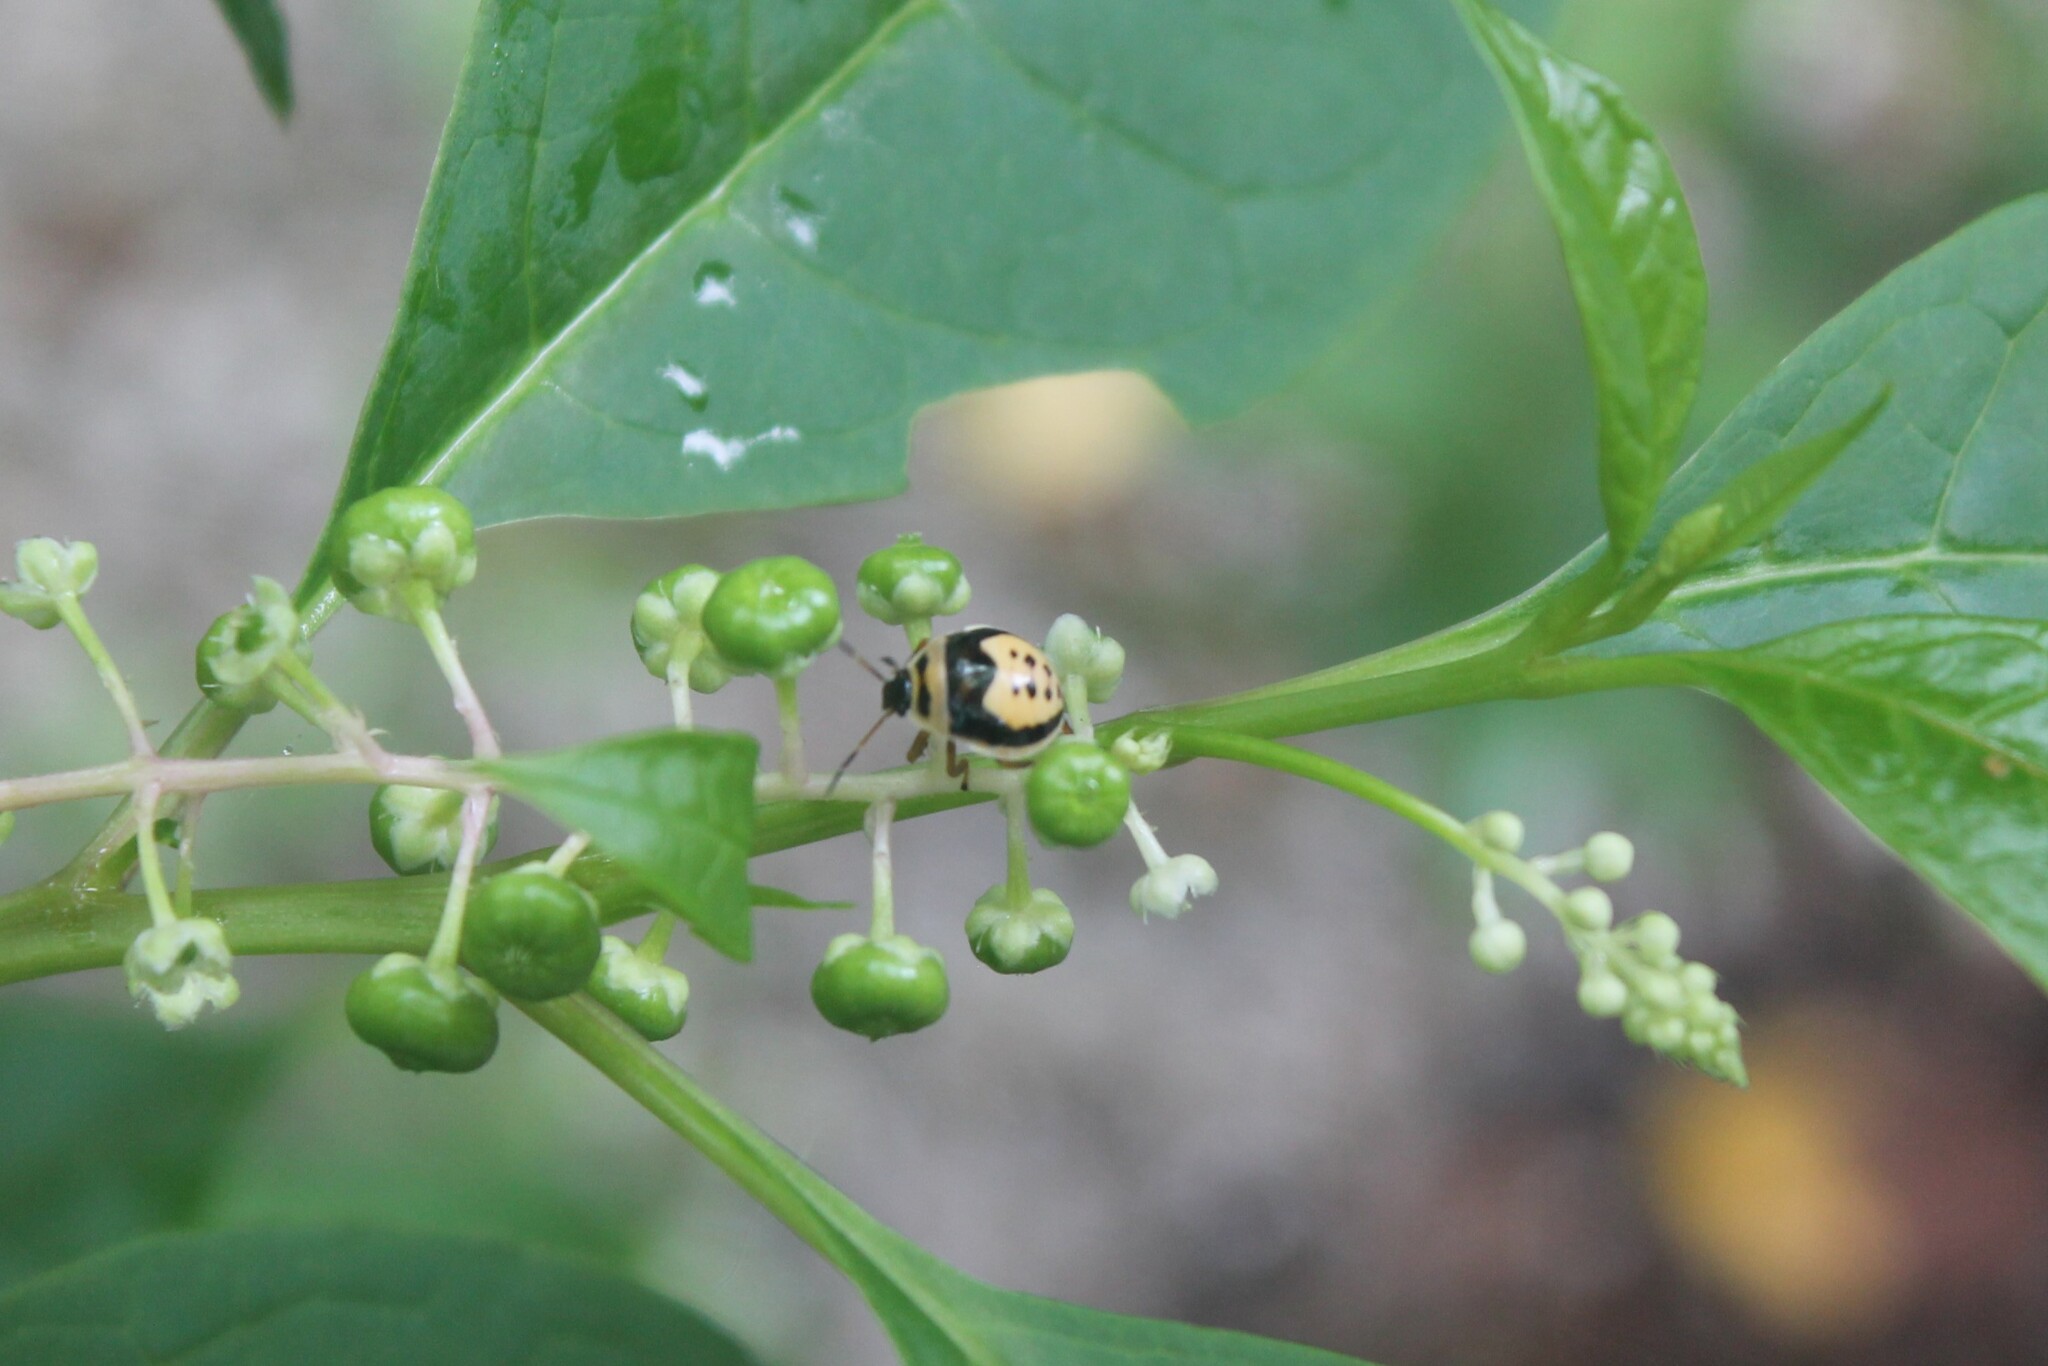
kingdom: Animalia
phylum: Arthropoda
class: Insecta
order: Hemiptera
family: Pentatomidae
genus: Stiretrus
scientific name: Stiretrus anchorago
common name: Anchor stink bug
